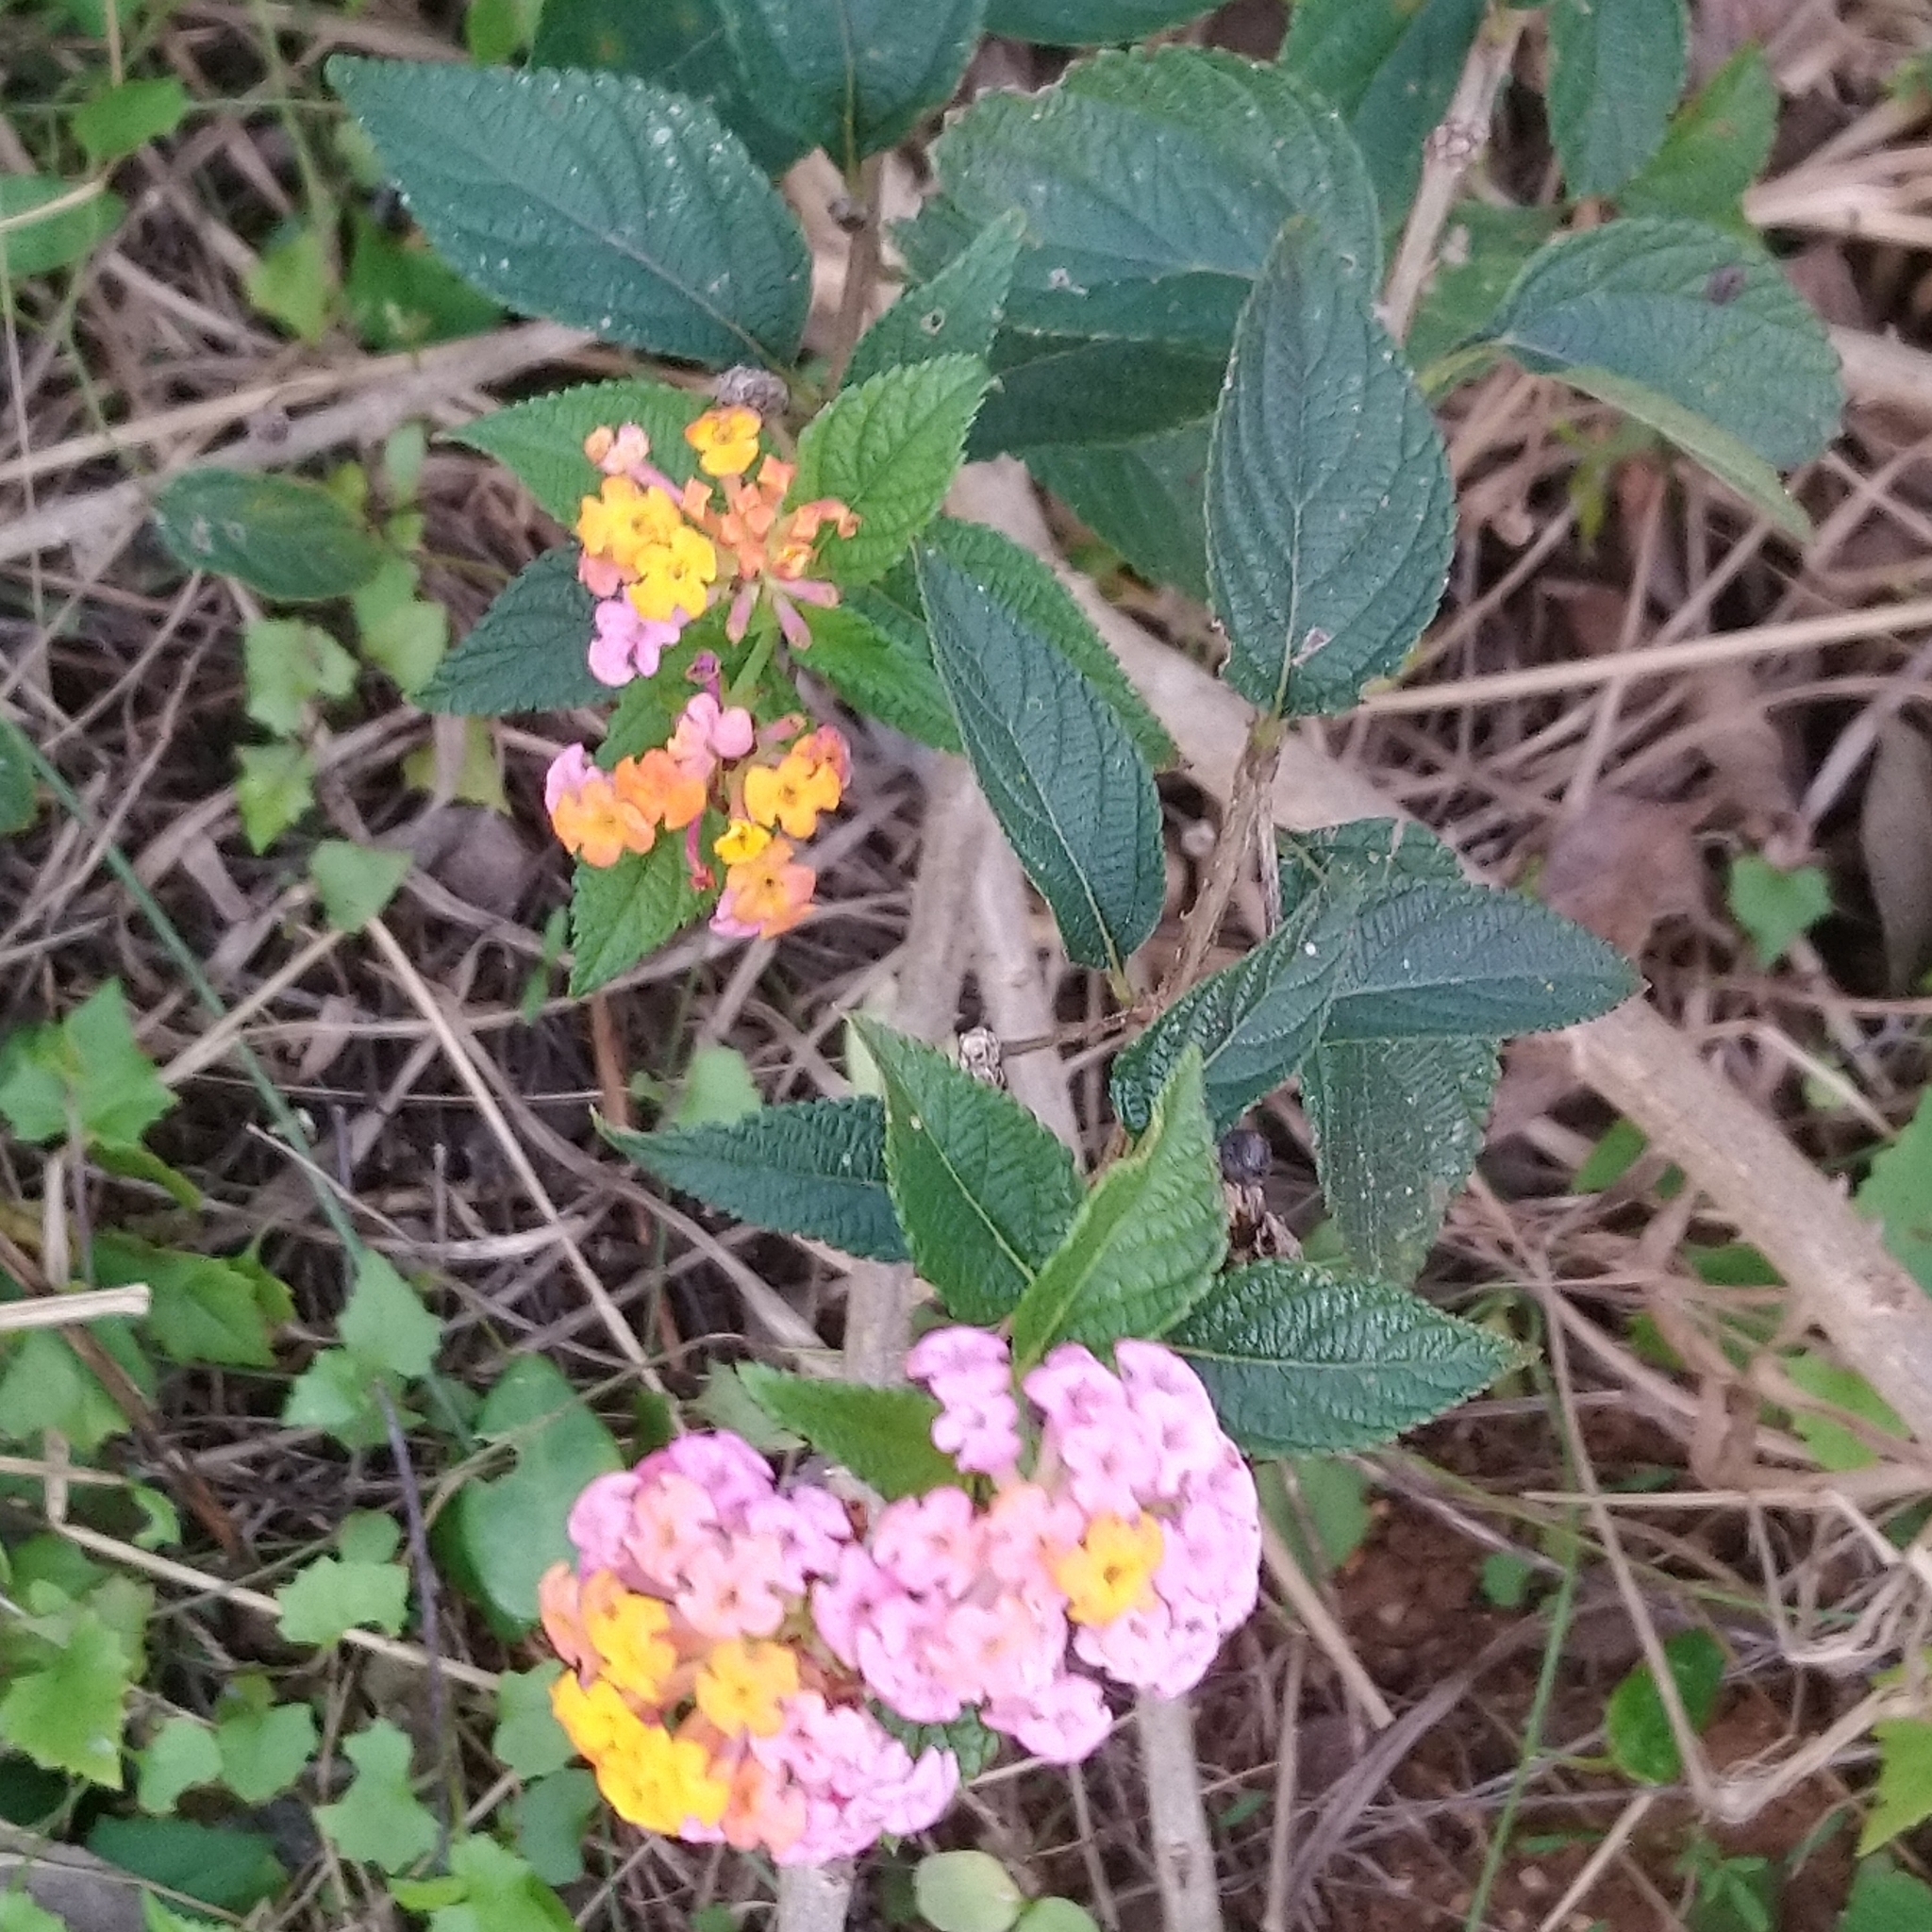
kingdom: Plantae
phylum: Tracheophyta
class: Magnoliopsida
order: Lamiales
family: Verbenaceae
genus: Lantana
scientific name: Lantana camara
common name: Lantana
